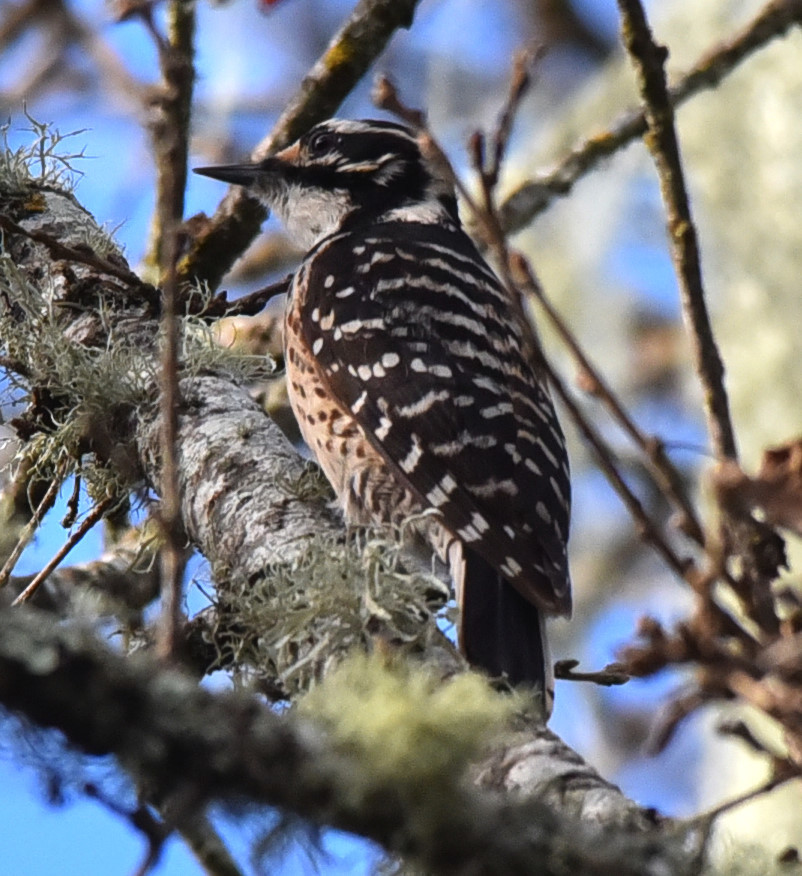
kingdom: Animalia
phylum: Chordata
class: Aves
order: Piciformes
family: Picidae
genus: Dryobates
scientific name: Dryobates nuttallii
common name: Nuttall's woodpecker
